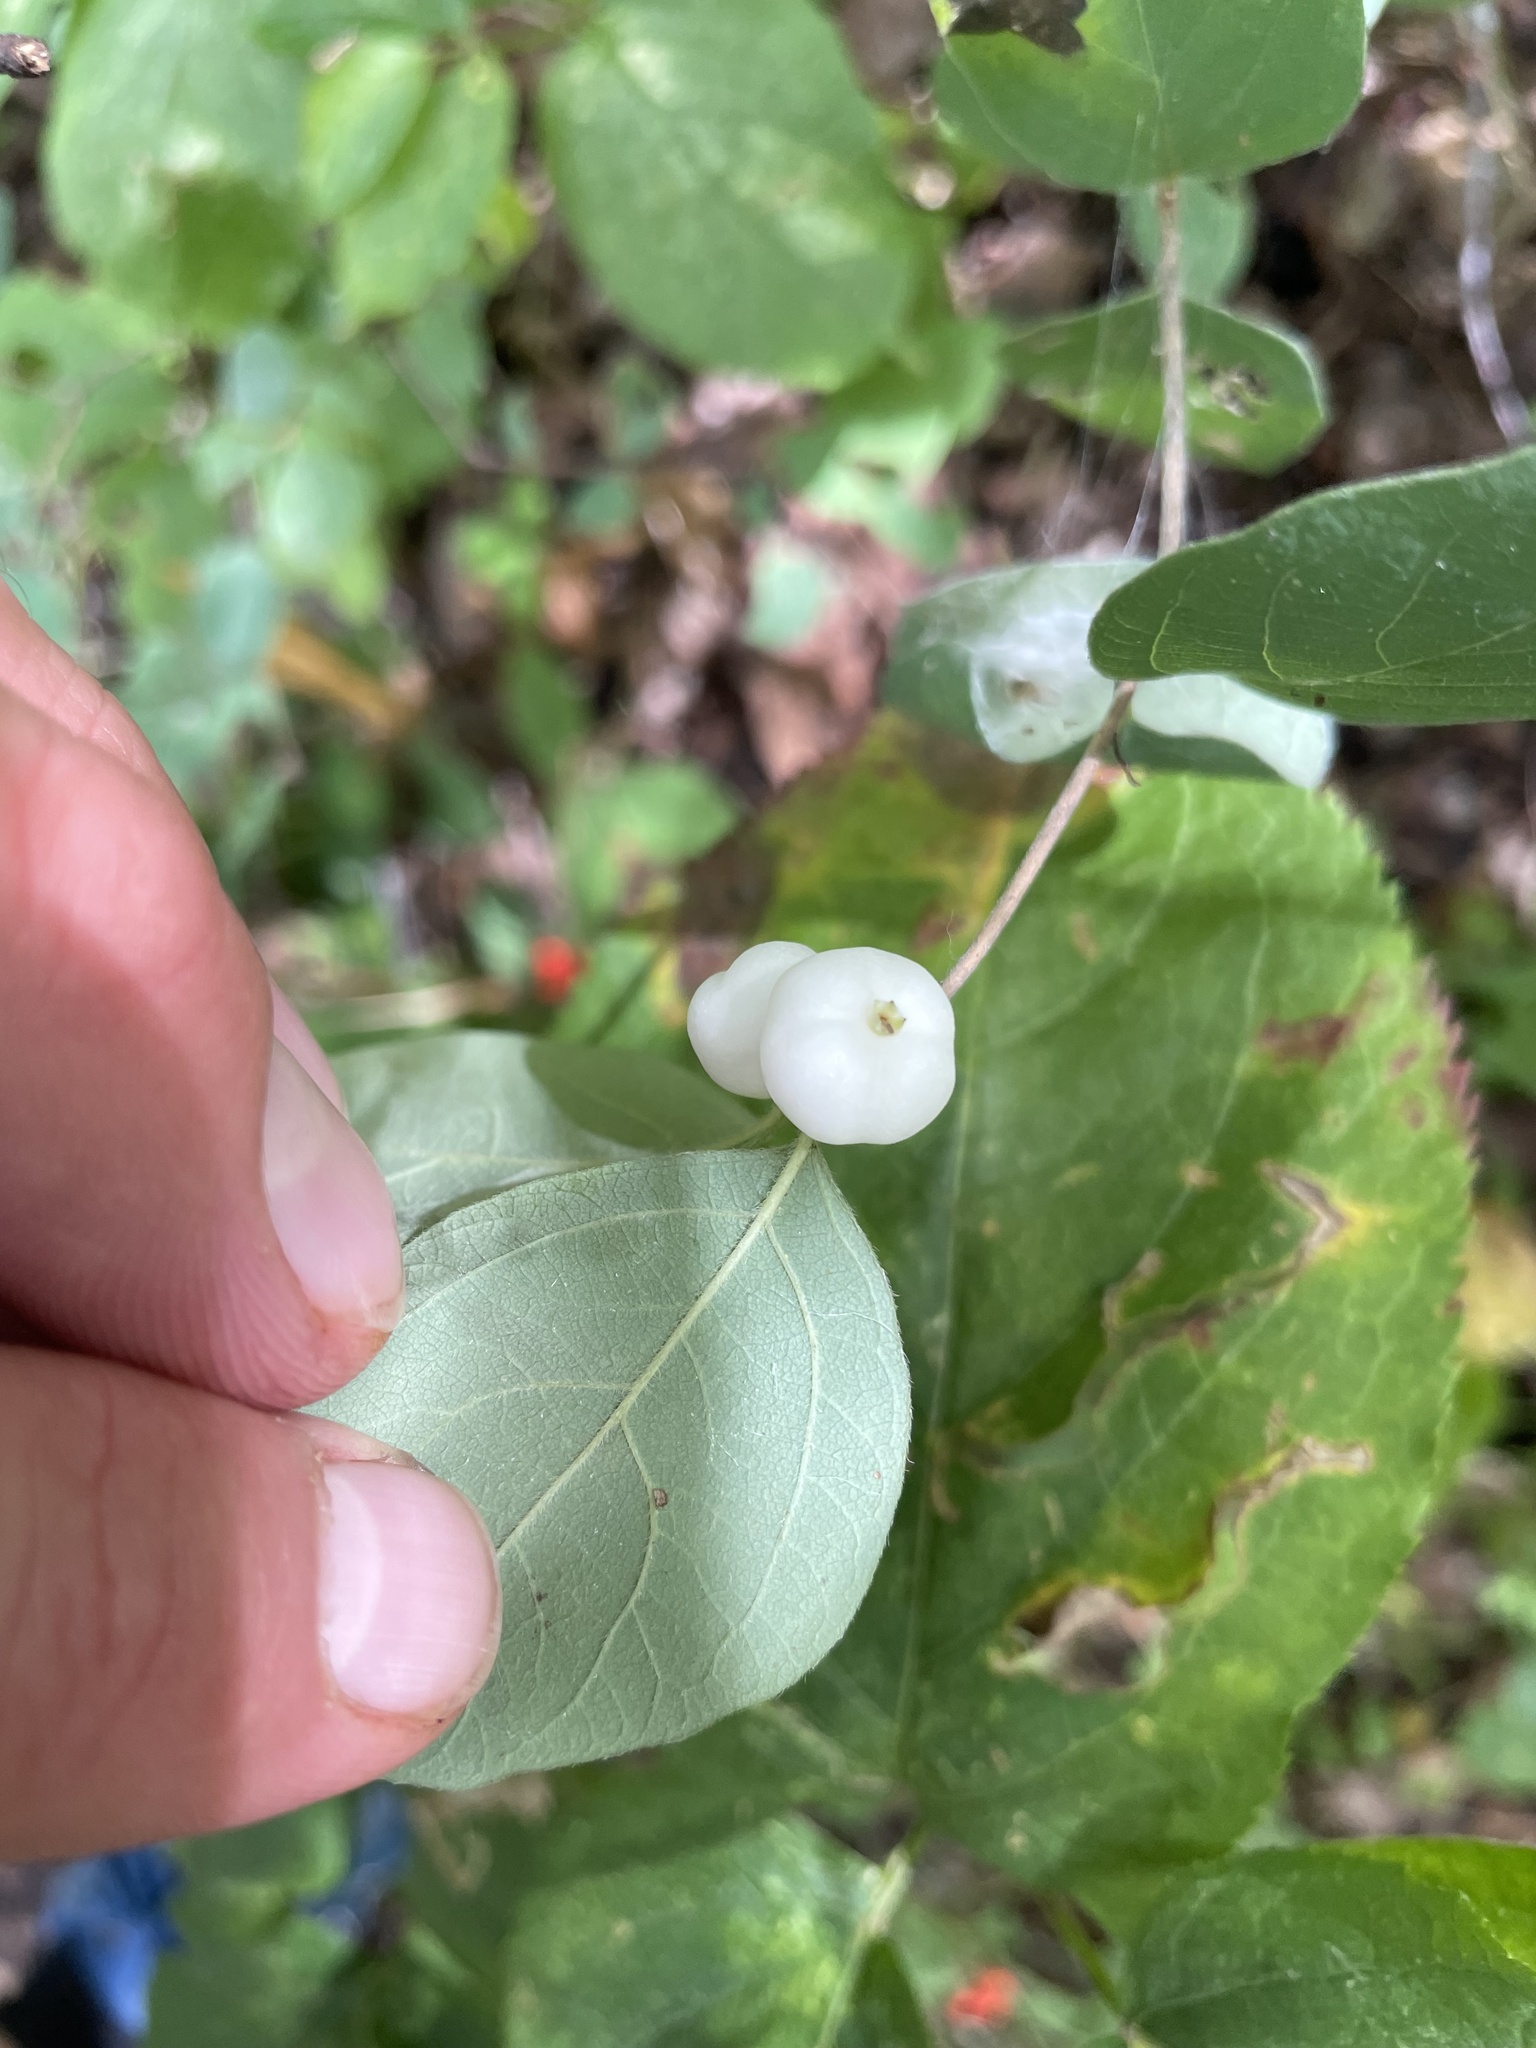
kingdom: Plantae
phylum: Tracheophyta
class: Magnoliopsida
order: Dipsacales
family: Caprifoliaceae
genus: Symphoricarpos
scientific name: Symphoricarpos albus
